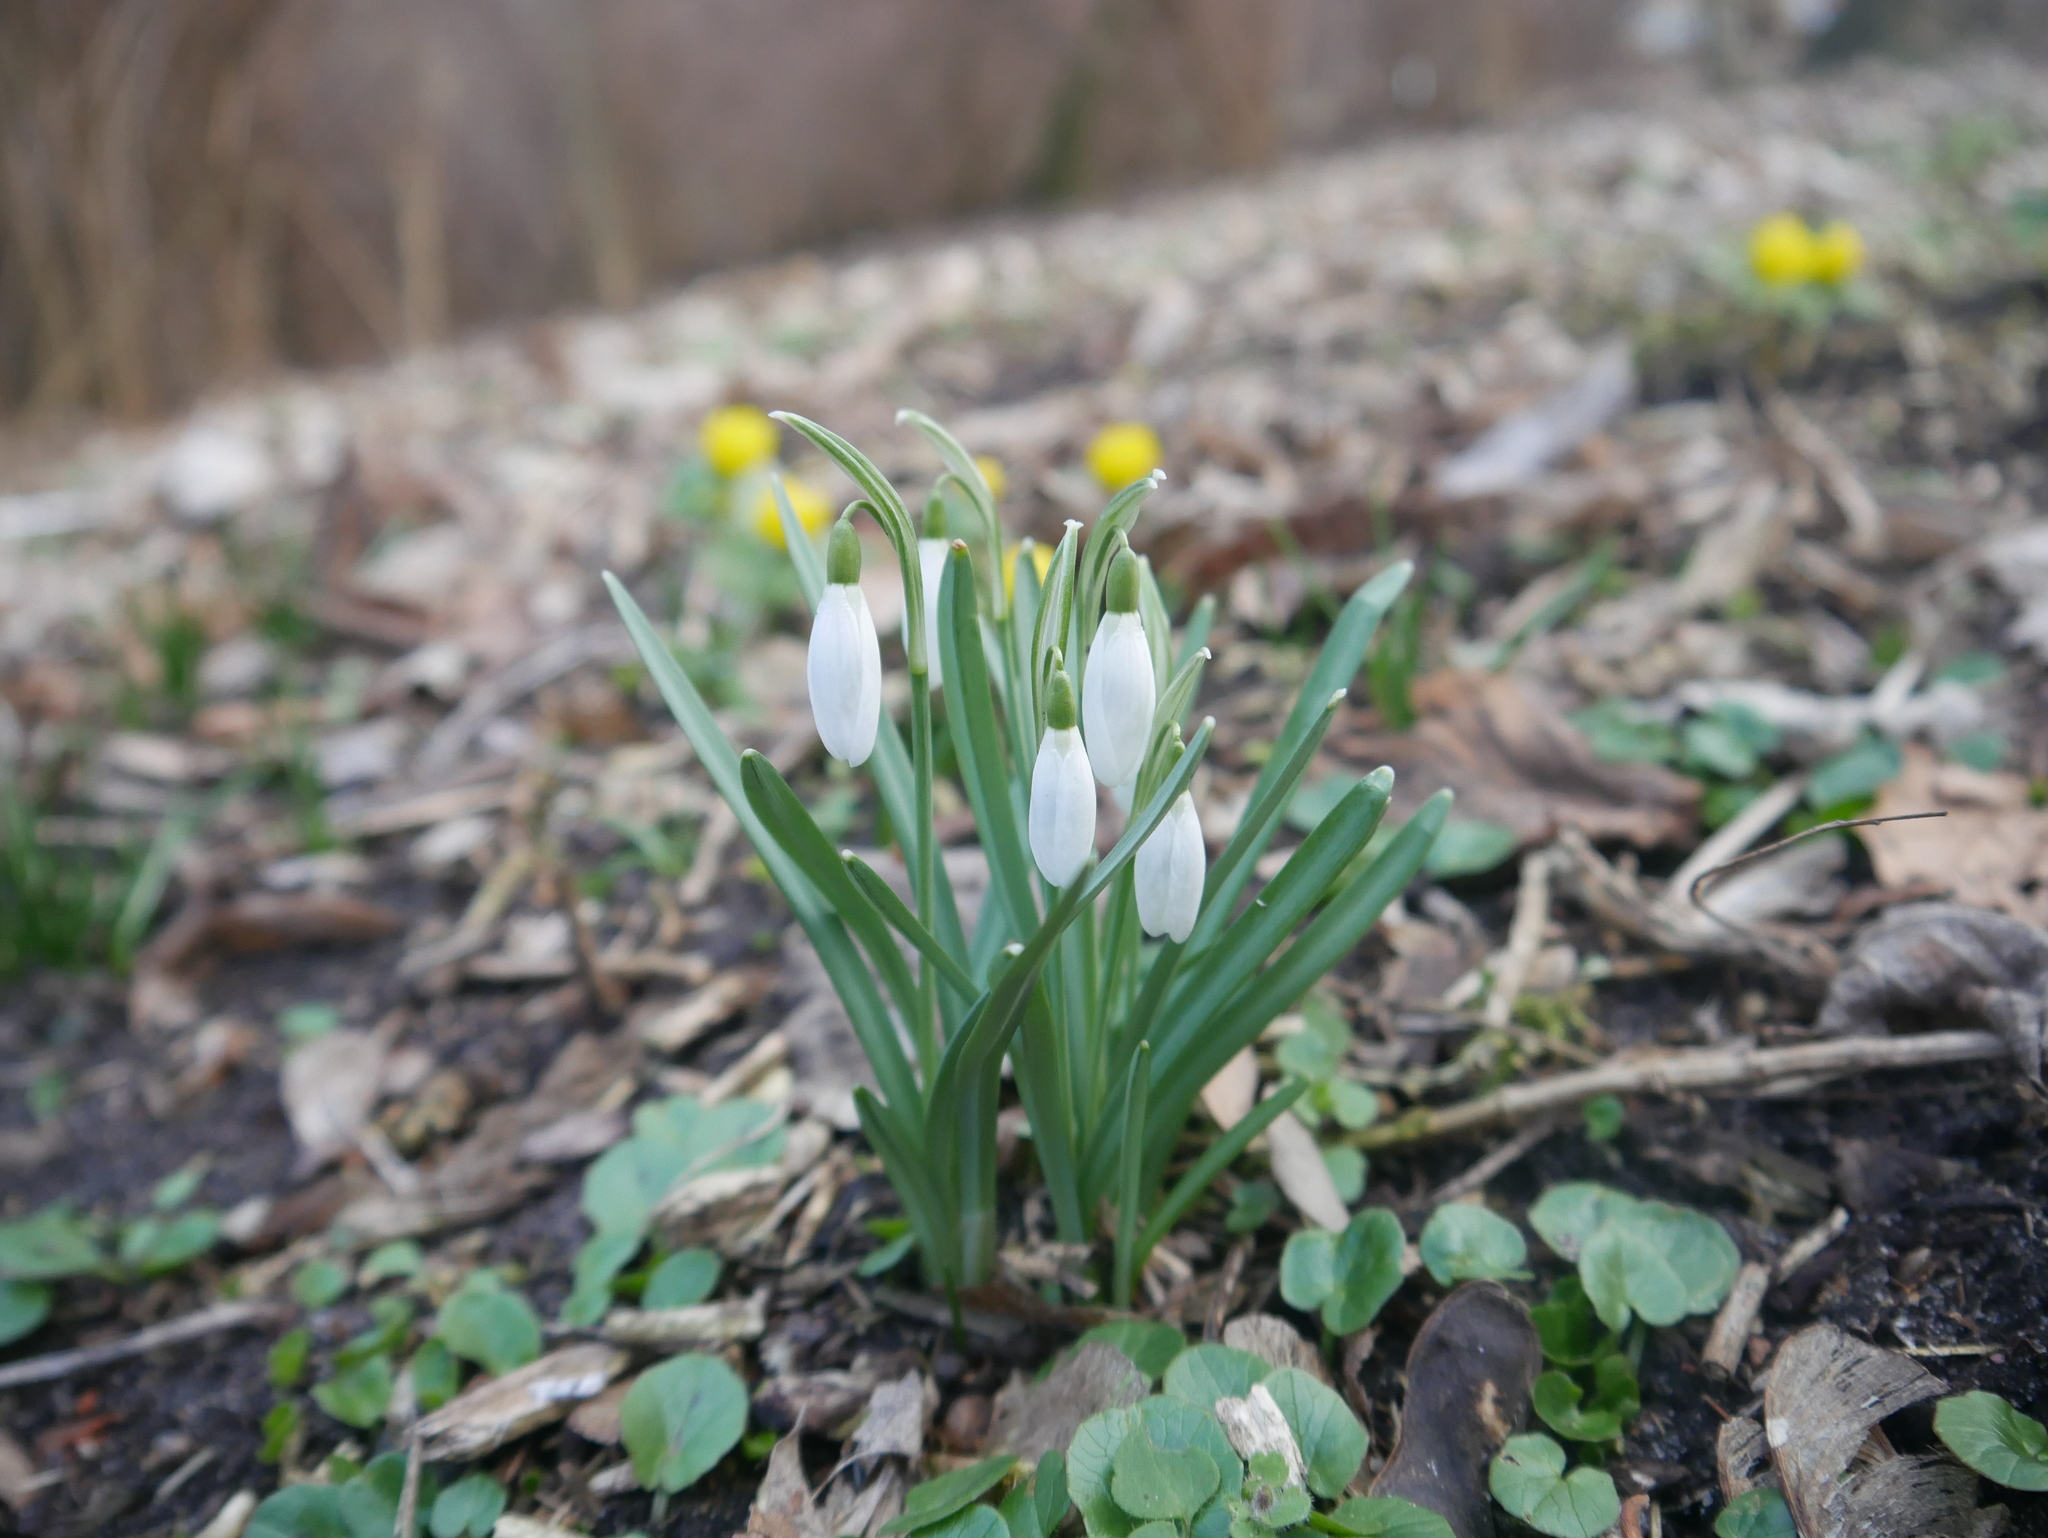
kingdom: Plantae
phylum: Tracheophyta
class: Liliopsida
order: Asparagales
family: Amaryllidaceae
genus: Galanthus
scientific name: Galanthus nivalis
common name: Snowdrop
